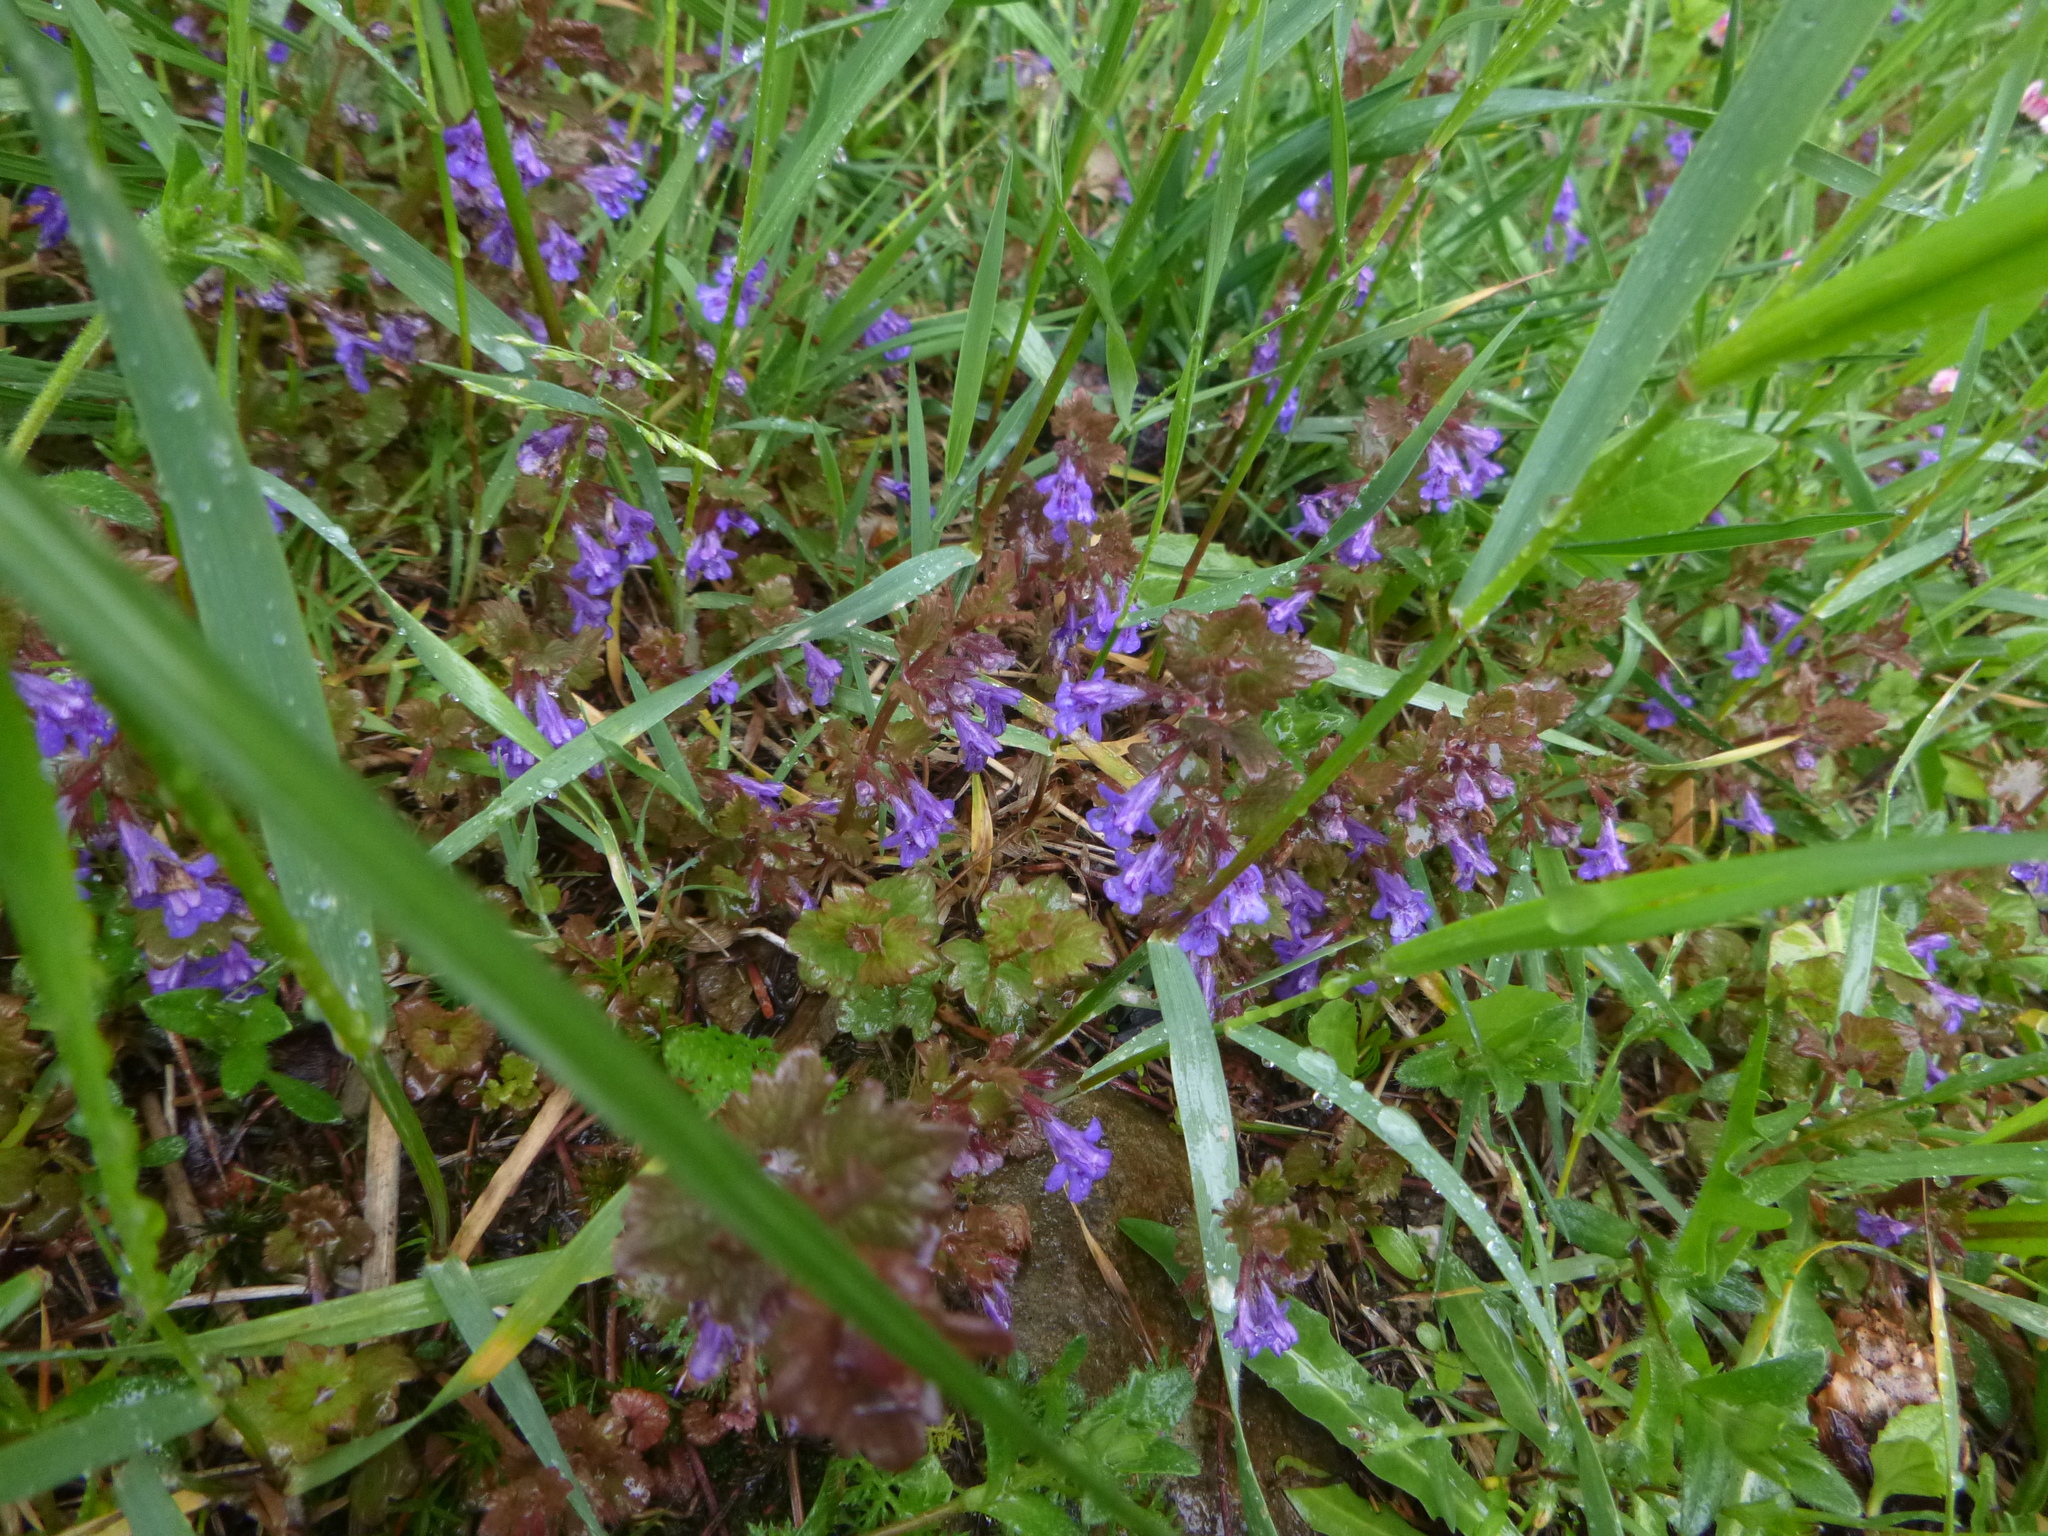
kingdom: Plantae
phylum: Tracheophyta
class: Magnoliopsida
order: Lamiales
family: Lamiaceae
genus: Glechoma
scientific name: Glechoma hederacea
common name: Ground ivy
